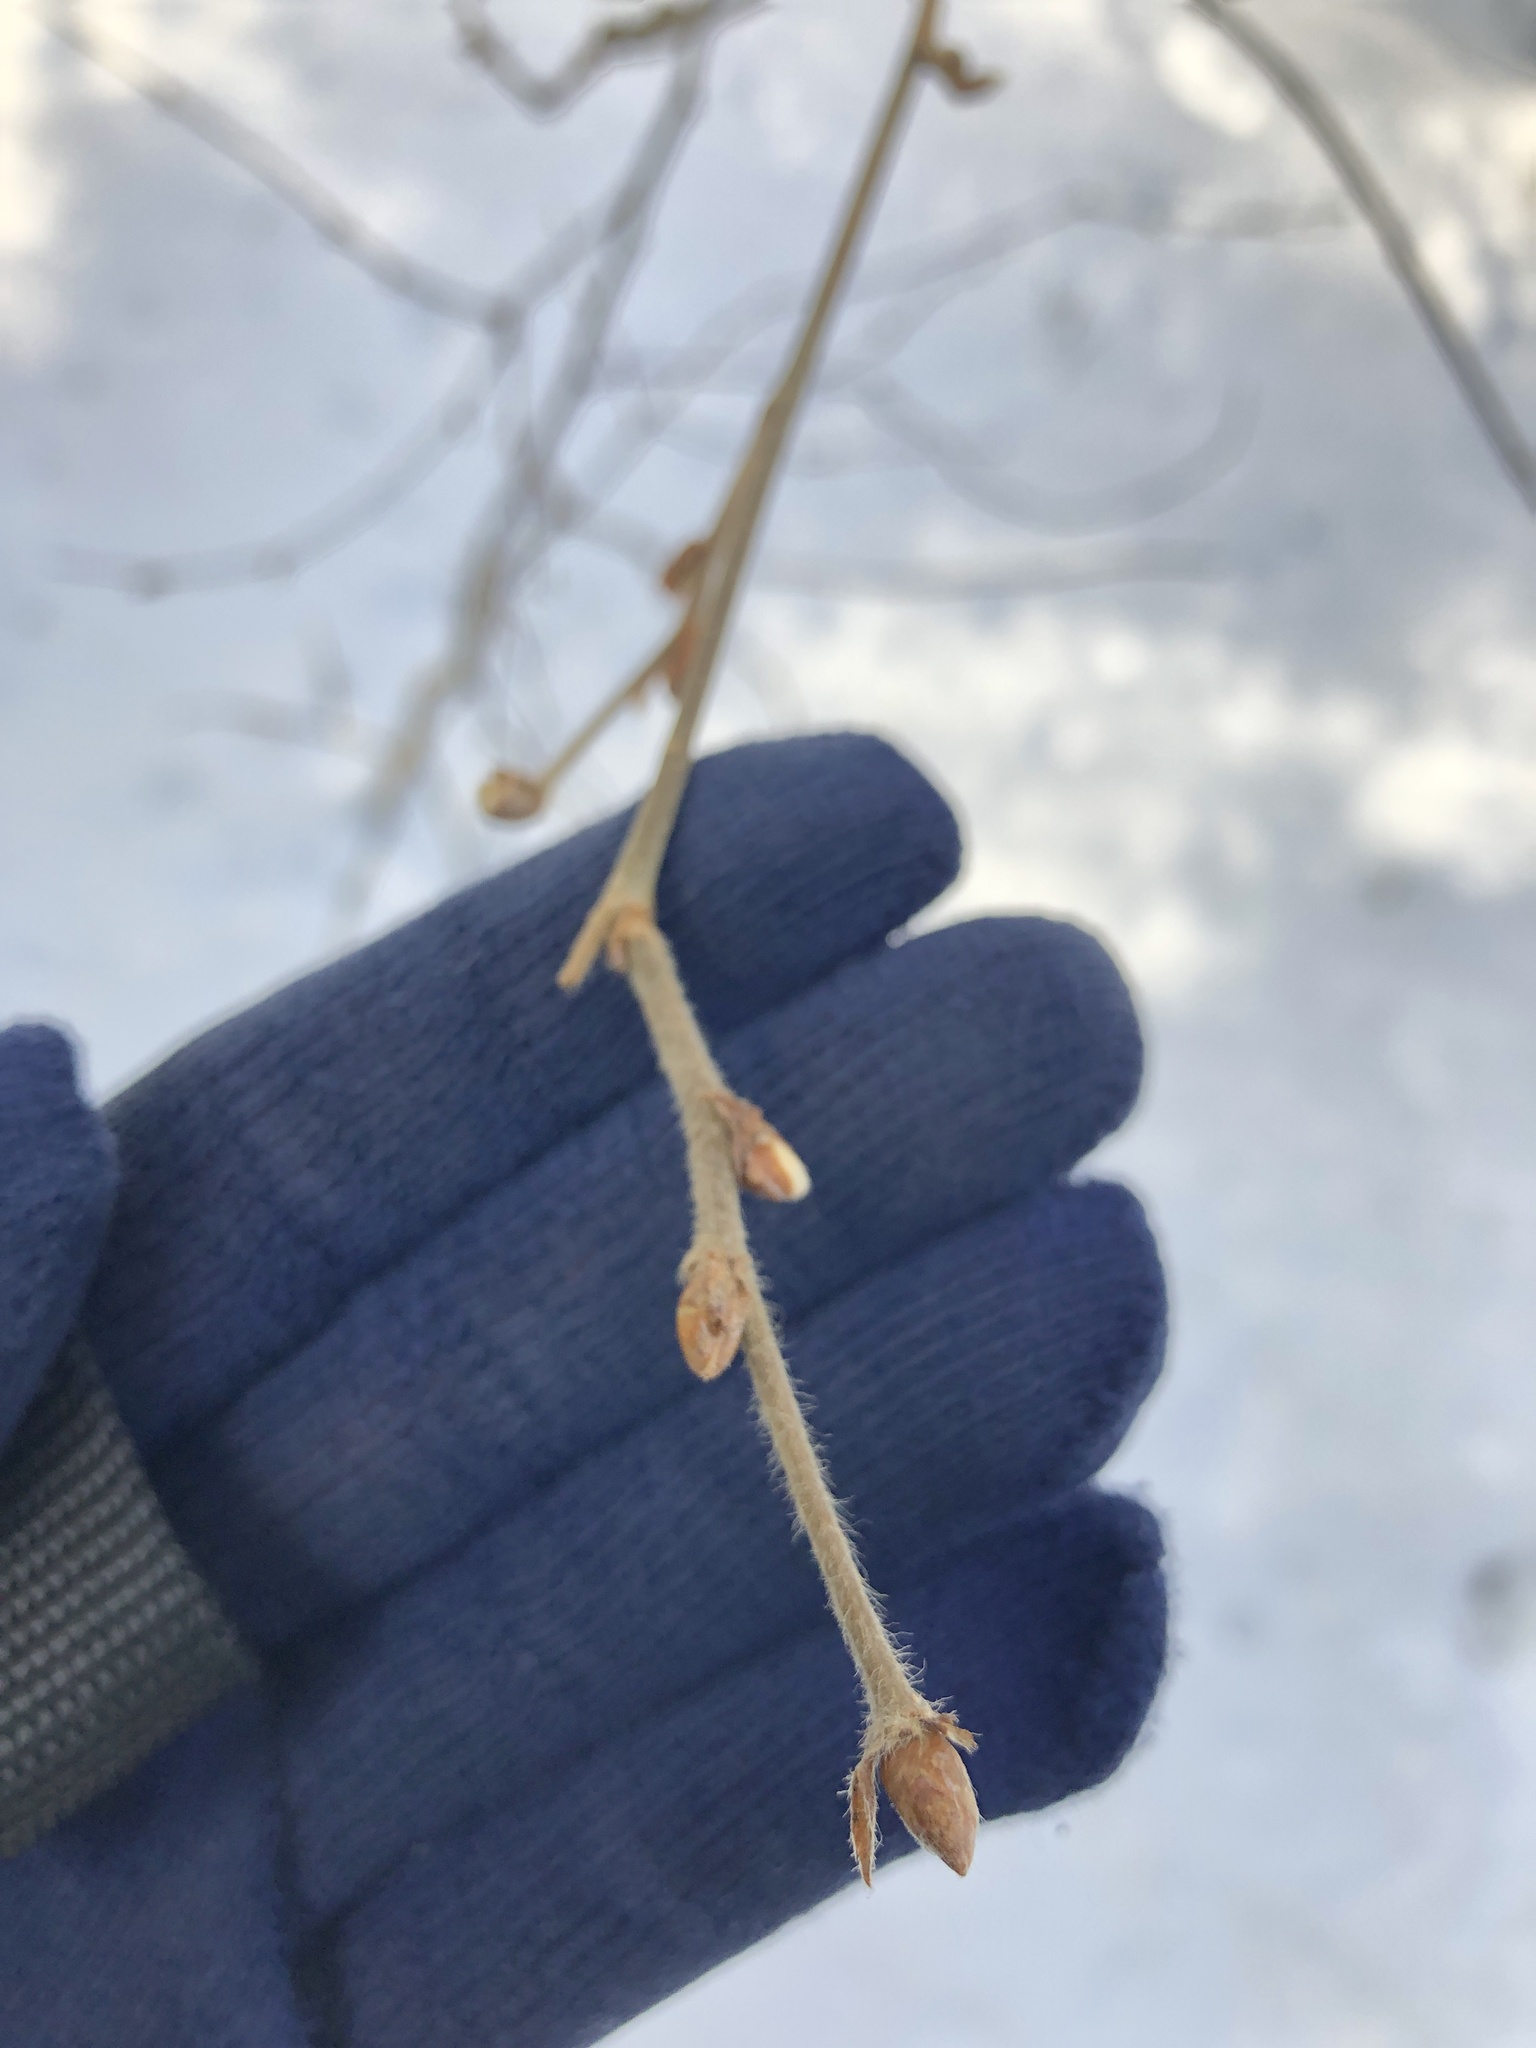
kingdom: Plantae
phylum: Tracheophyta
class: Magnoliopsida
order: Fagales
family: Betulaceae
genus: Corylus
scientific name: Corylus cornuta
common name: Beaked hazel
